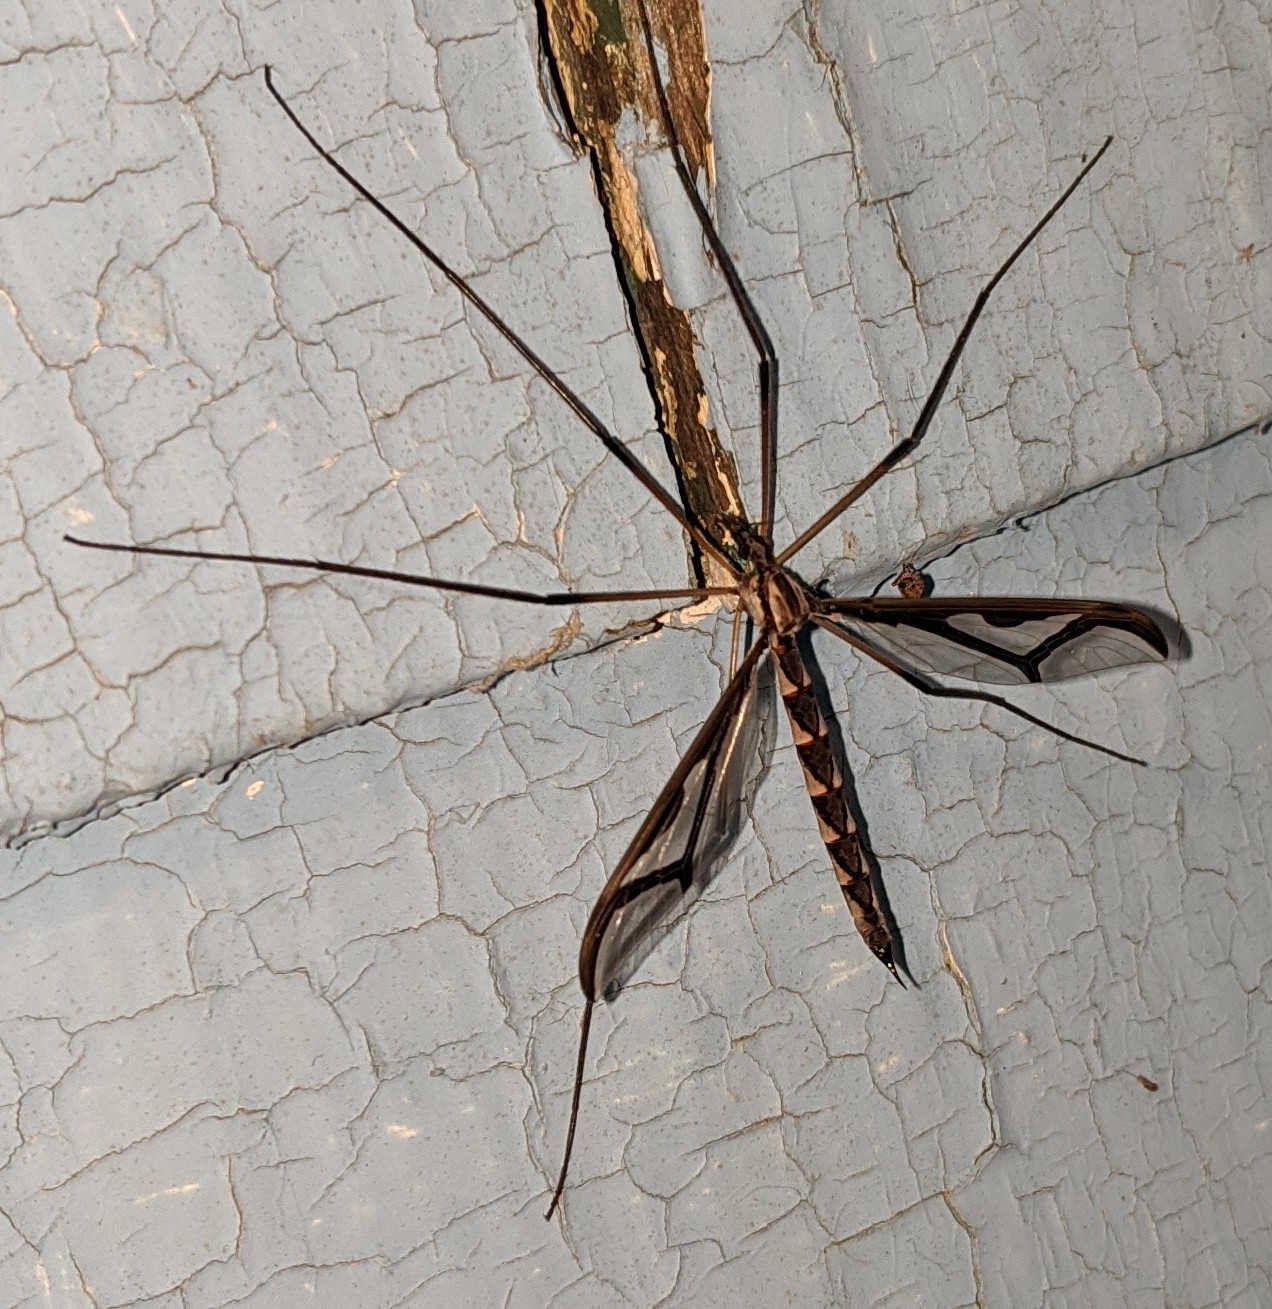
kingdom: Animalia
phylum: Arthropoda
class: Insecta
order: Diptera
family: Pediciidae
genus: Pedicia
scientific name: Pedicia albivitta
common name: Giant eastern crane fly
